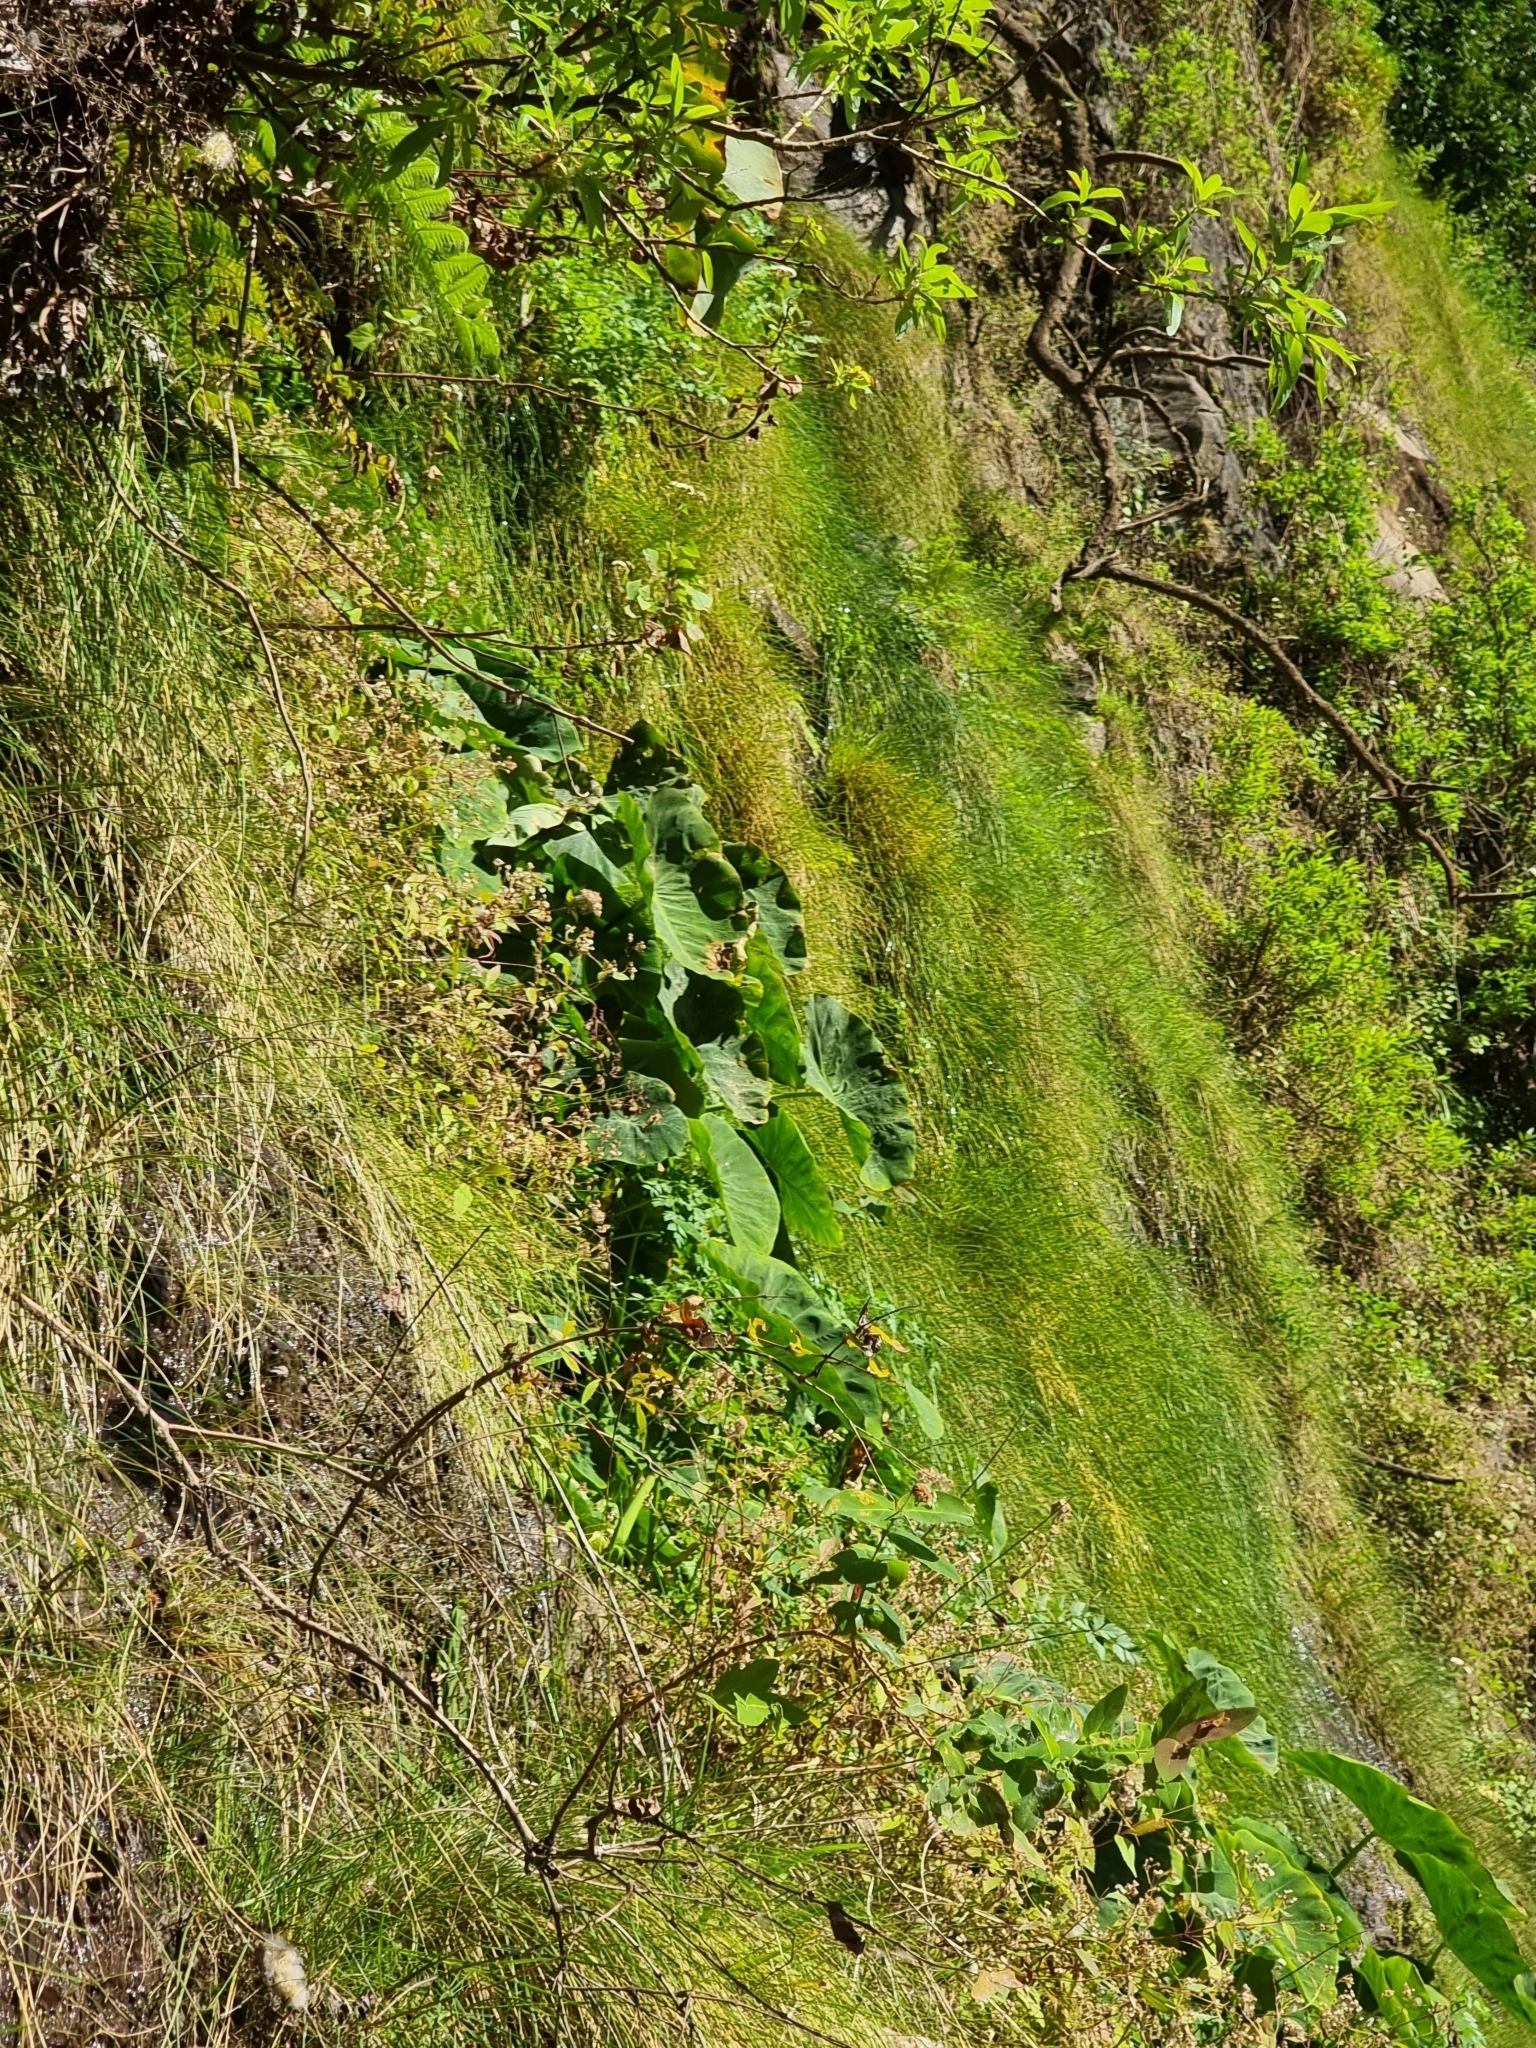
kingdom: Plantae
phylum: Tracheophyta
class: Liliopsida
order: Alismatales
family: Araceae
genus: Colocasia
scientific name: Colocasia esculenta
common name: Taro
